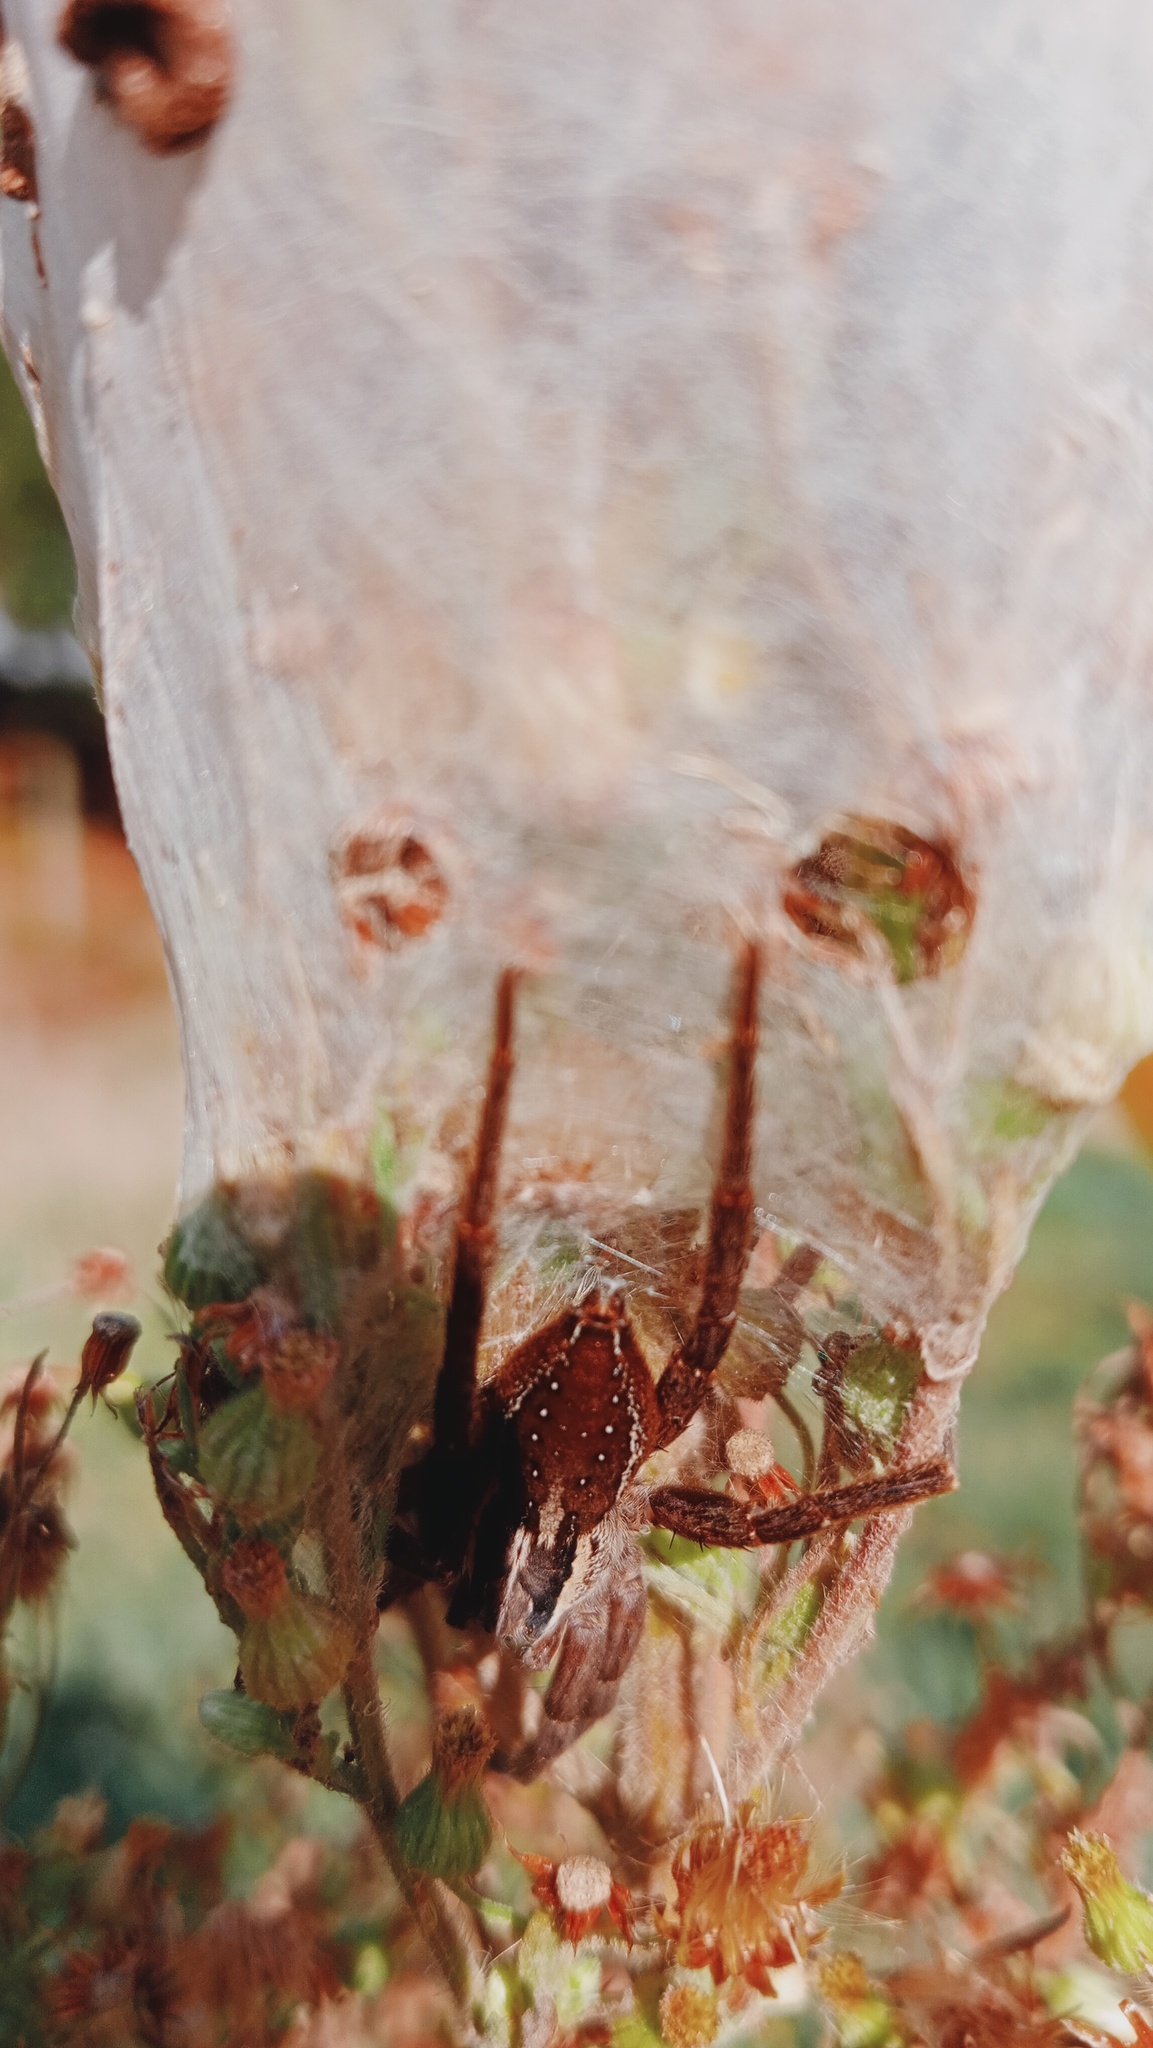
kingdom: Animalia
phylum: Arthropoda
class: Arachnida
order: Araneae
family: Pisauridae
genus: Dolomedes
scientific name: Dolomedes minor
